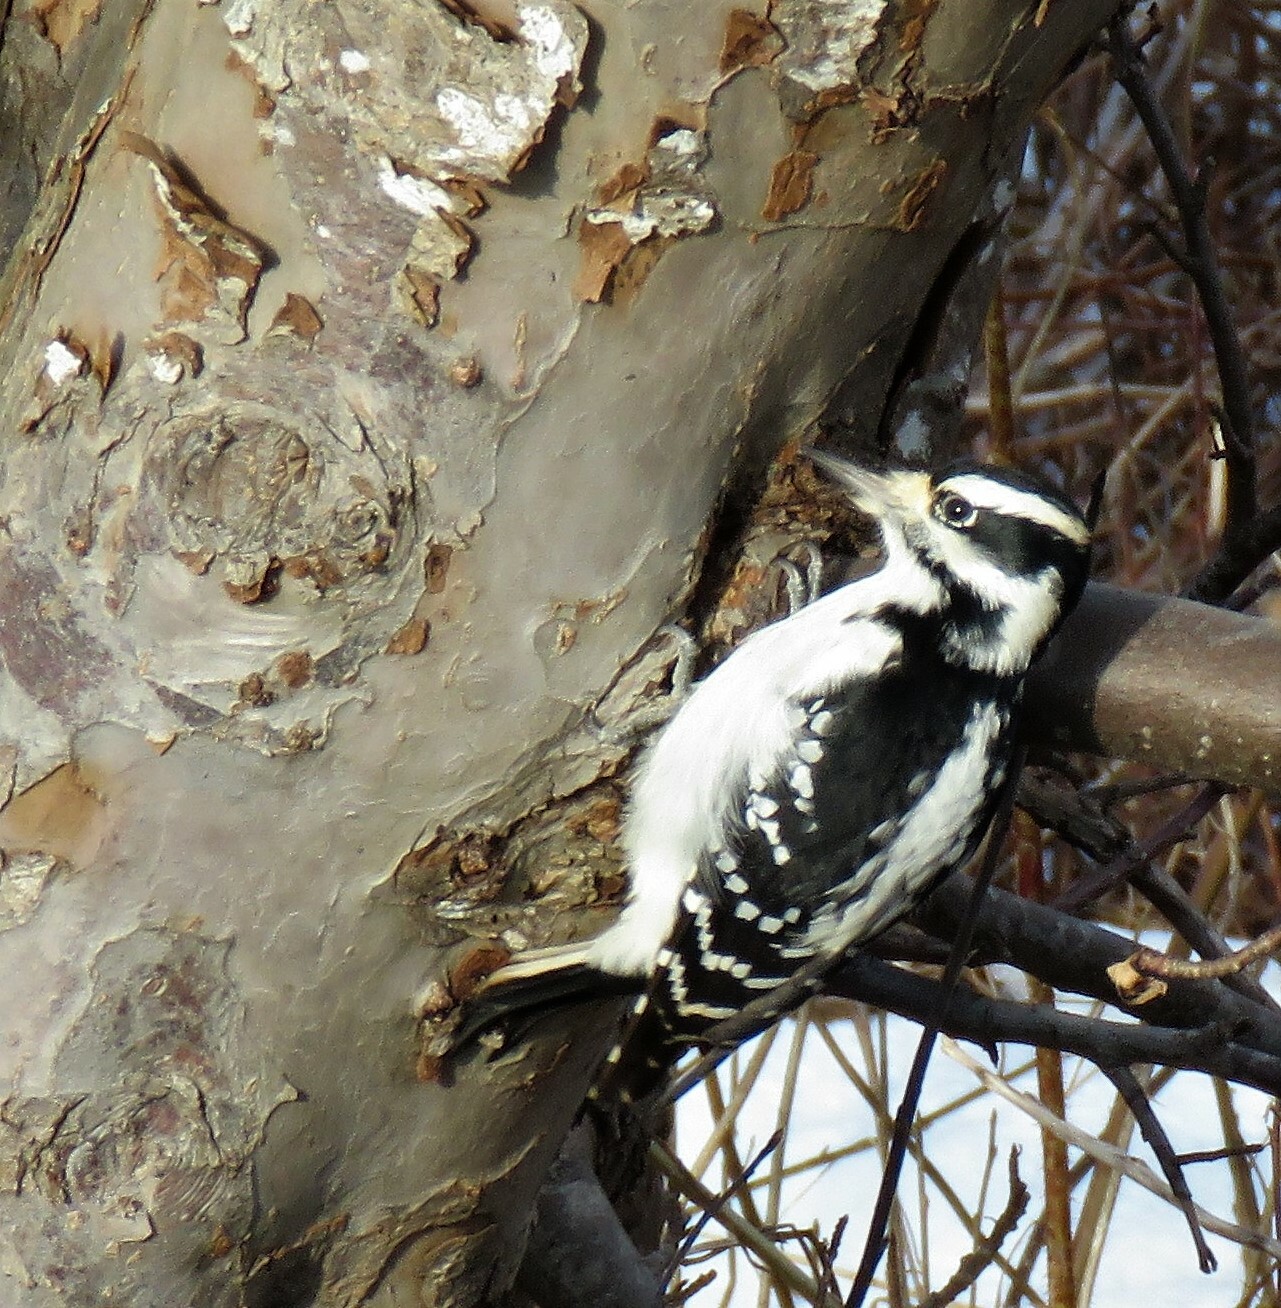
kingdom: Animalia
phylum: Chordata
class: Aves
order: Piciformes
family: Picidae
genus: Leuconotopicus
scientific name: Leuconotopicus villosus
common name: Hairy woodpecker
